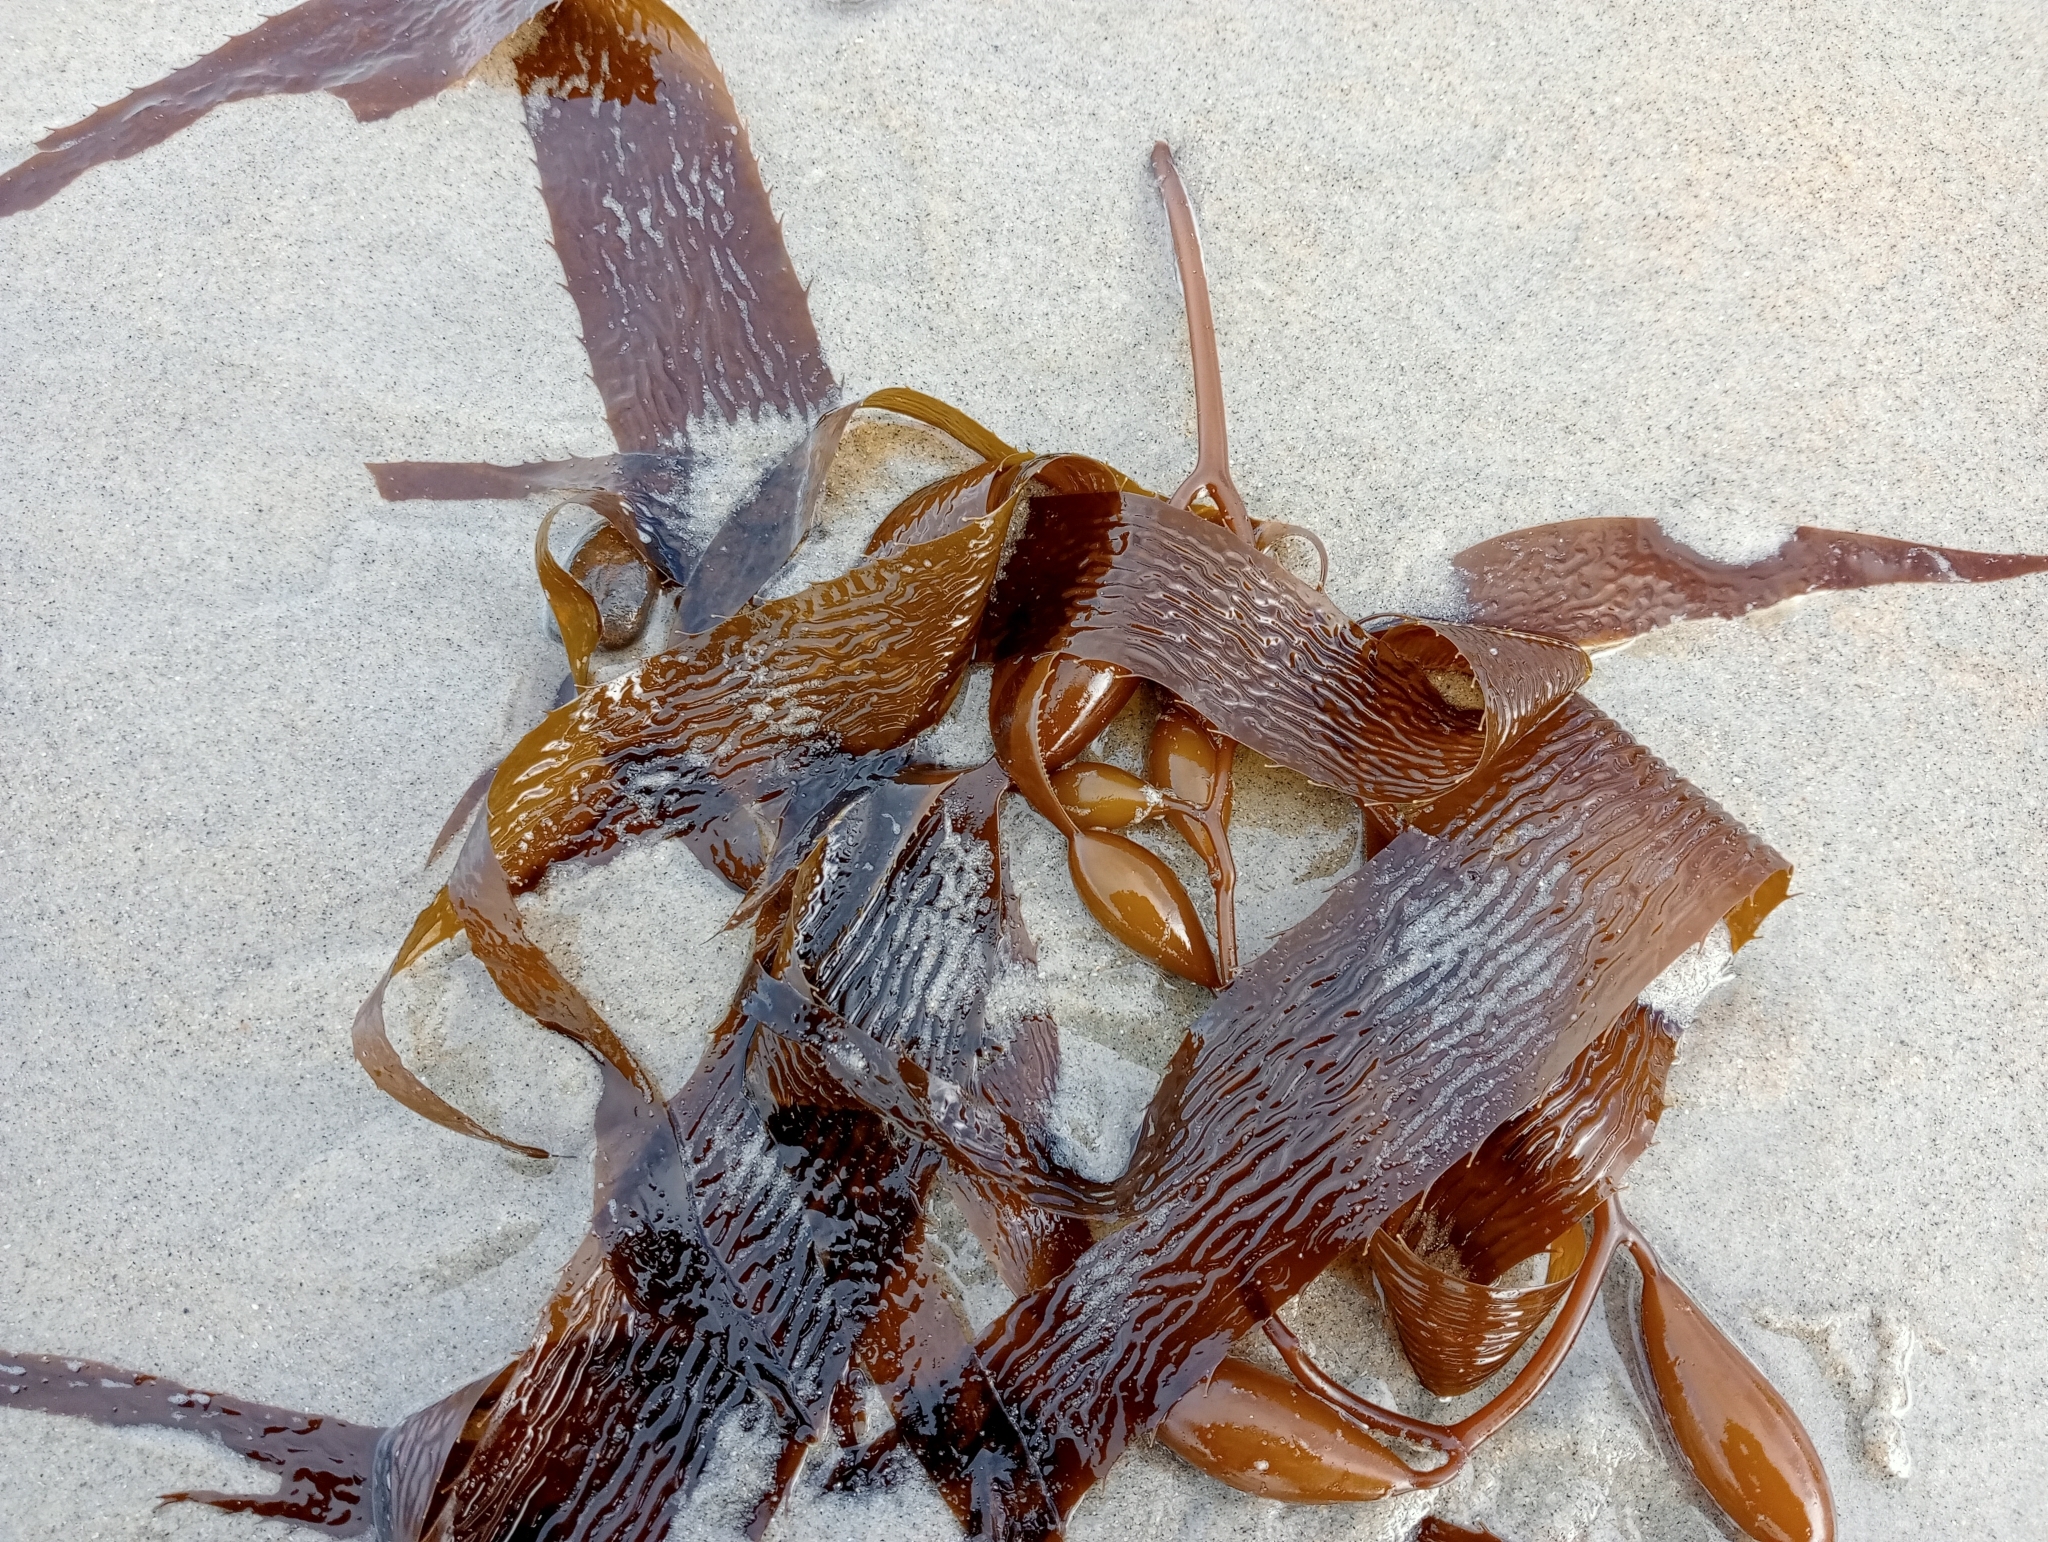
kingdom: Chromista
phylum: Ochrophyta
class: Phaeophyceae
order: Laminariales
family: Laminariaceae
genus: Macrocystis
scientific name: Macrocystis pyrifera
